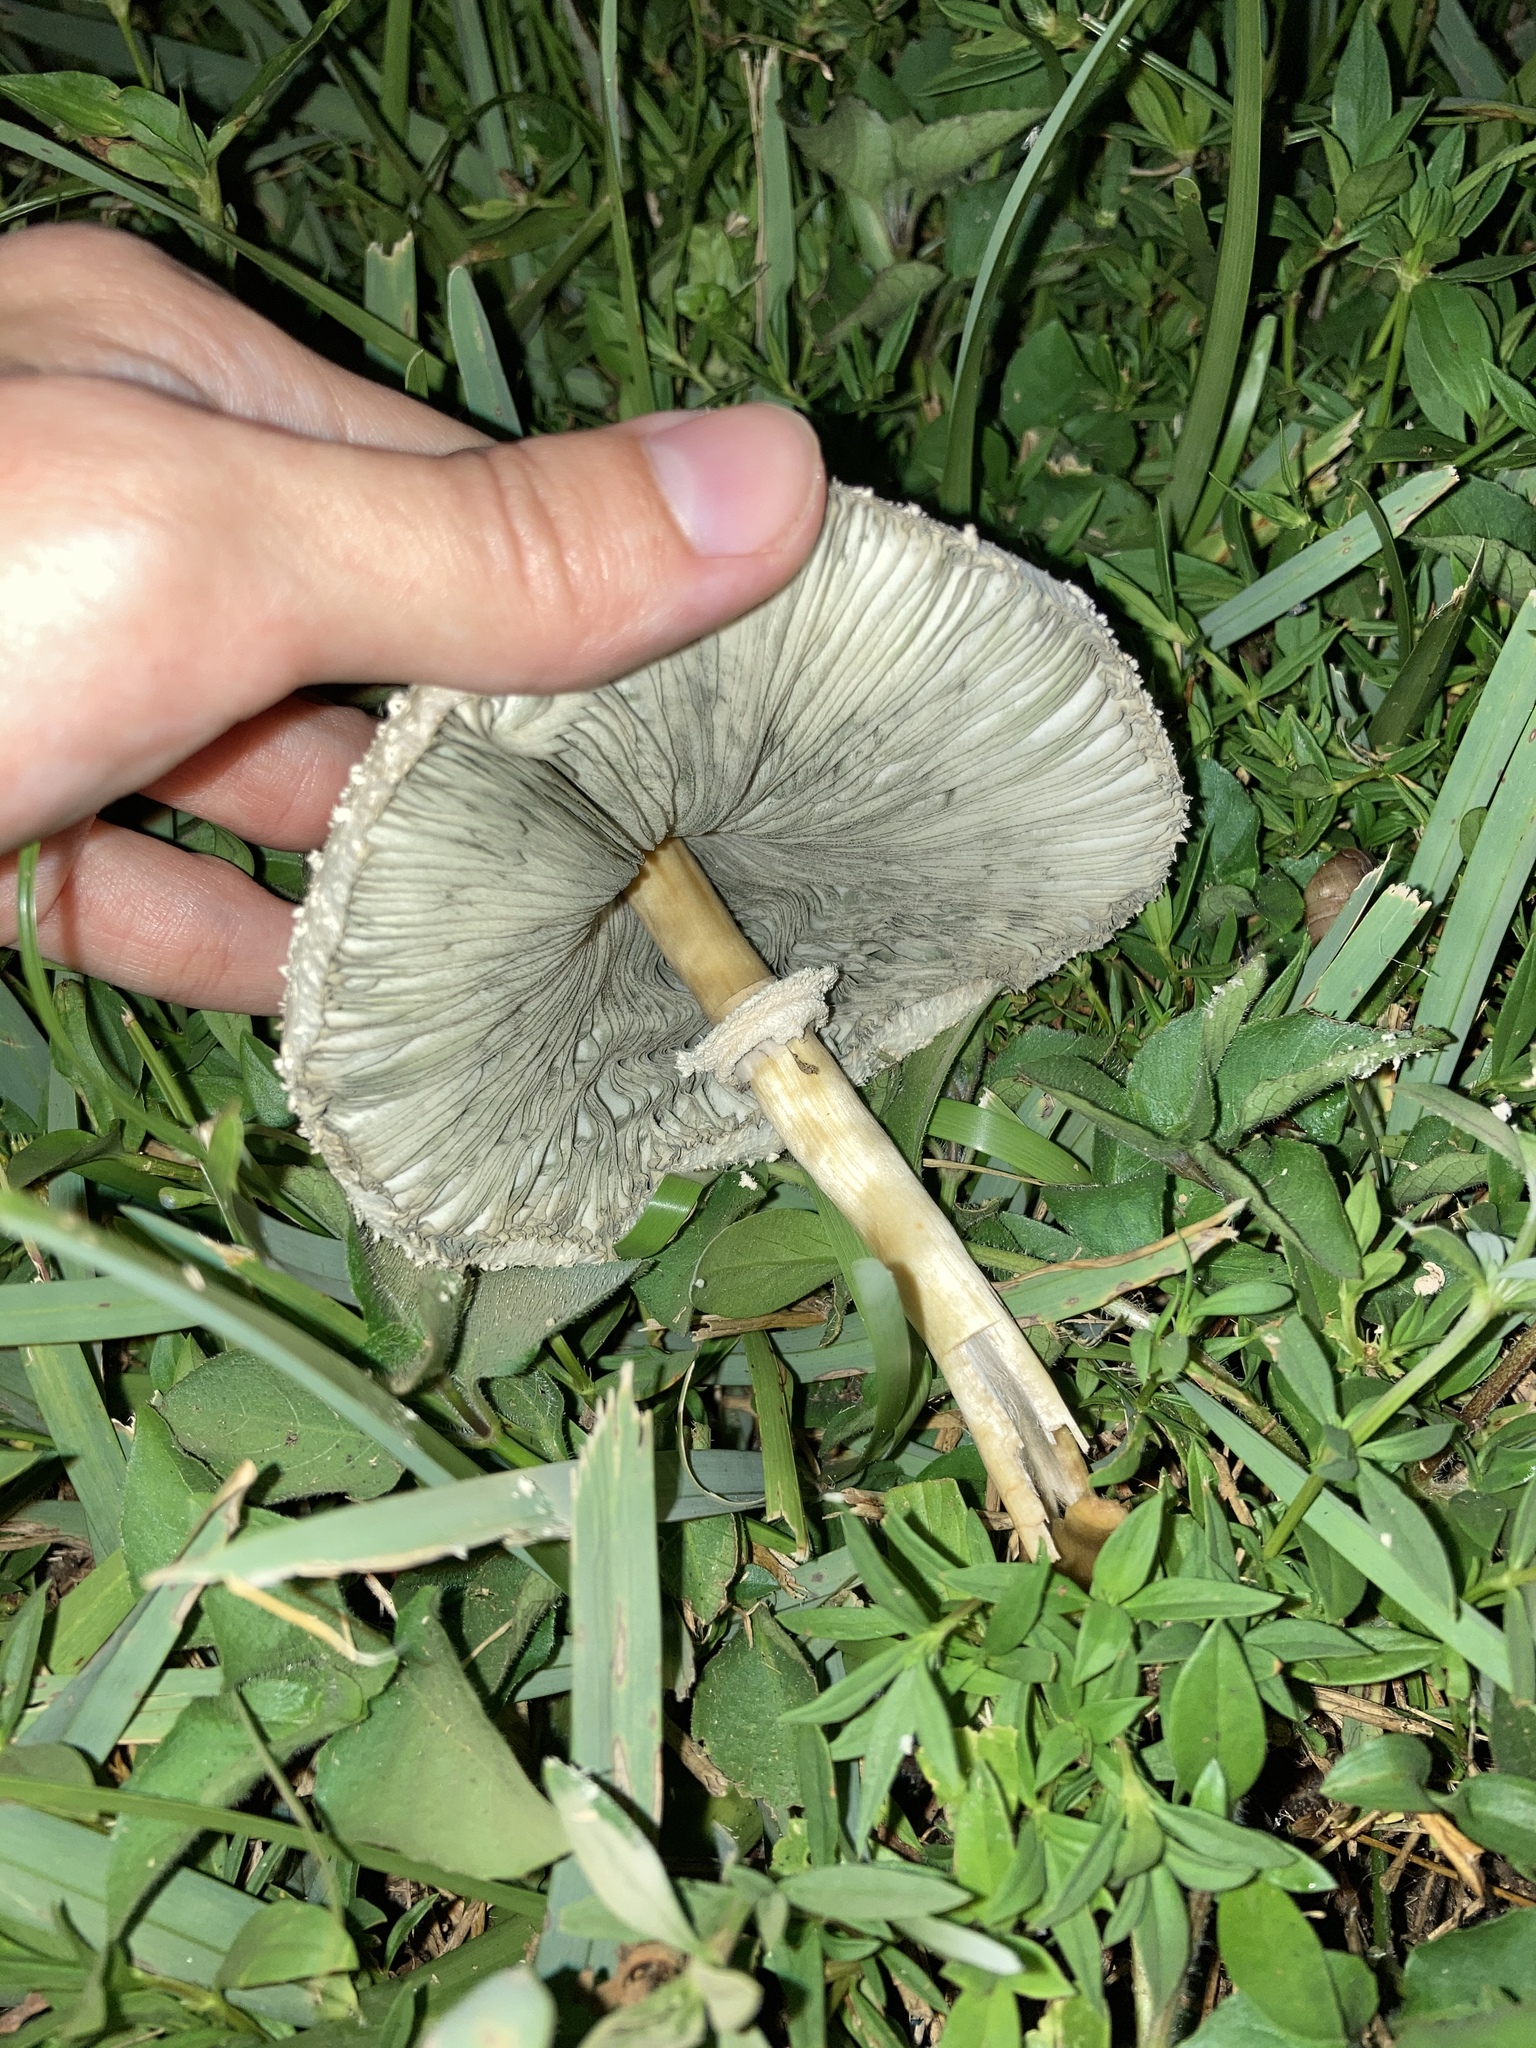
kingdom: Fungi
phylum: Basidiomycota
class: Agaricomycetes
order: Agaricales
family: Agaricaceae
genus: Chlorophyllum
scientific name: Chlorophyllum molybdites
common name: False parasol
